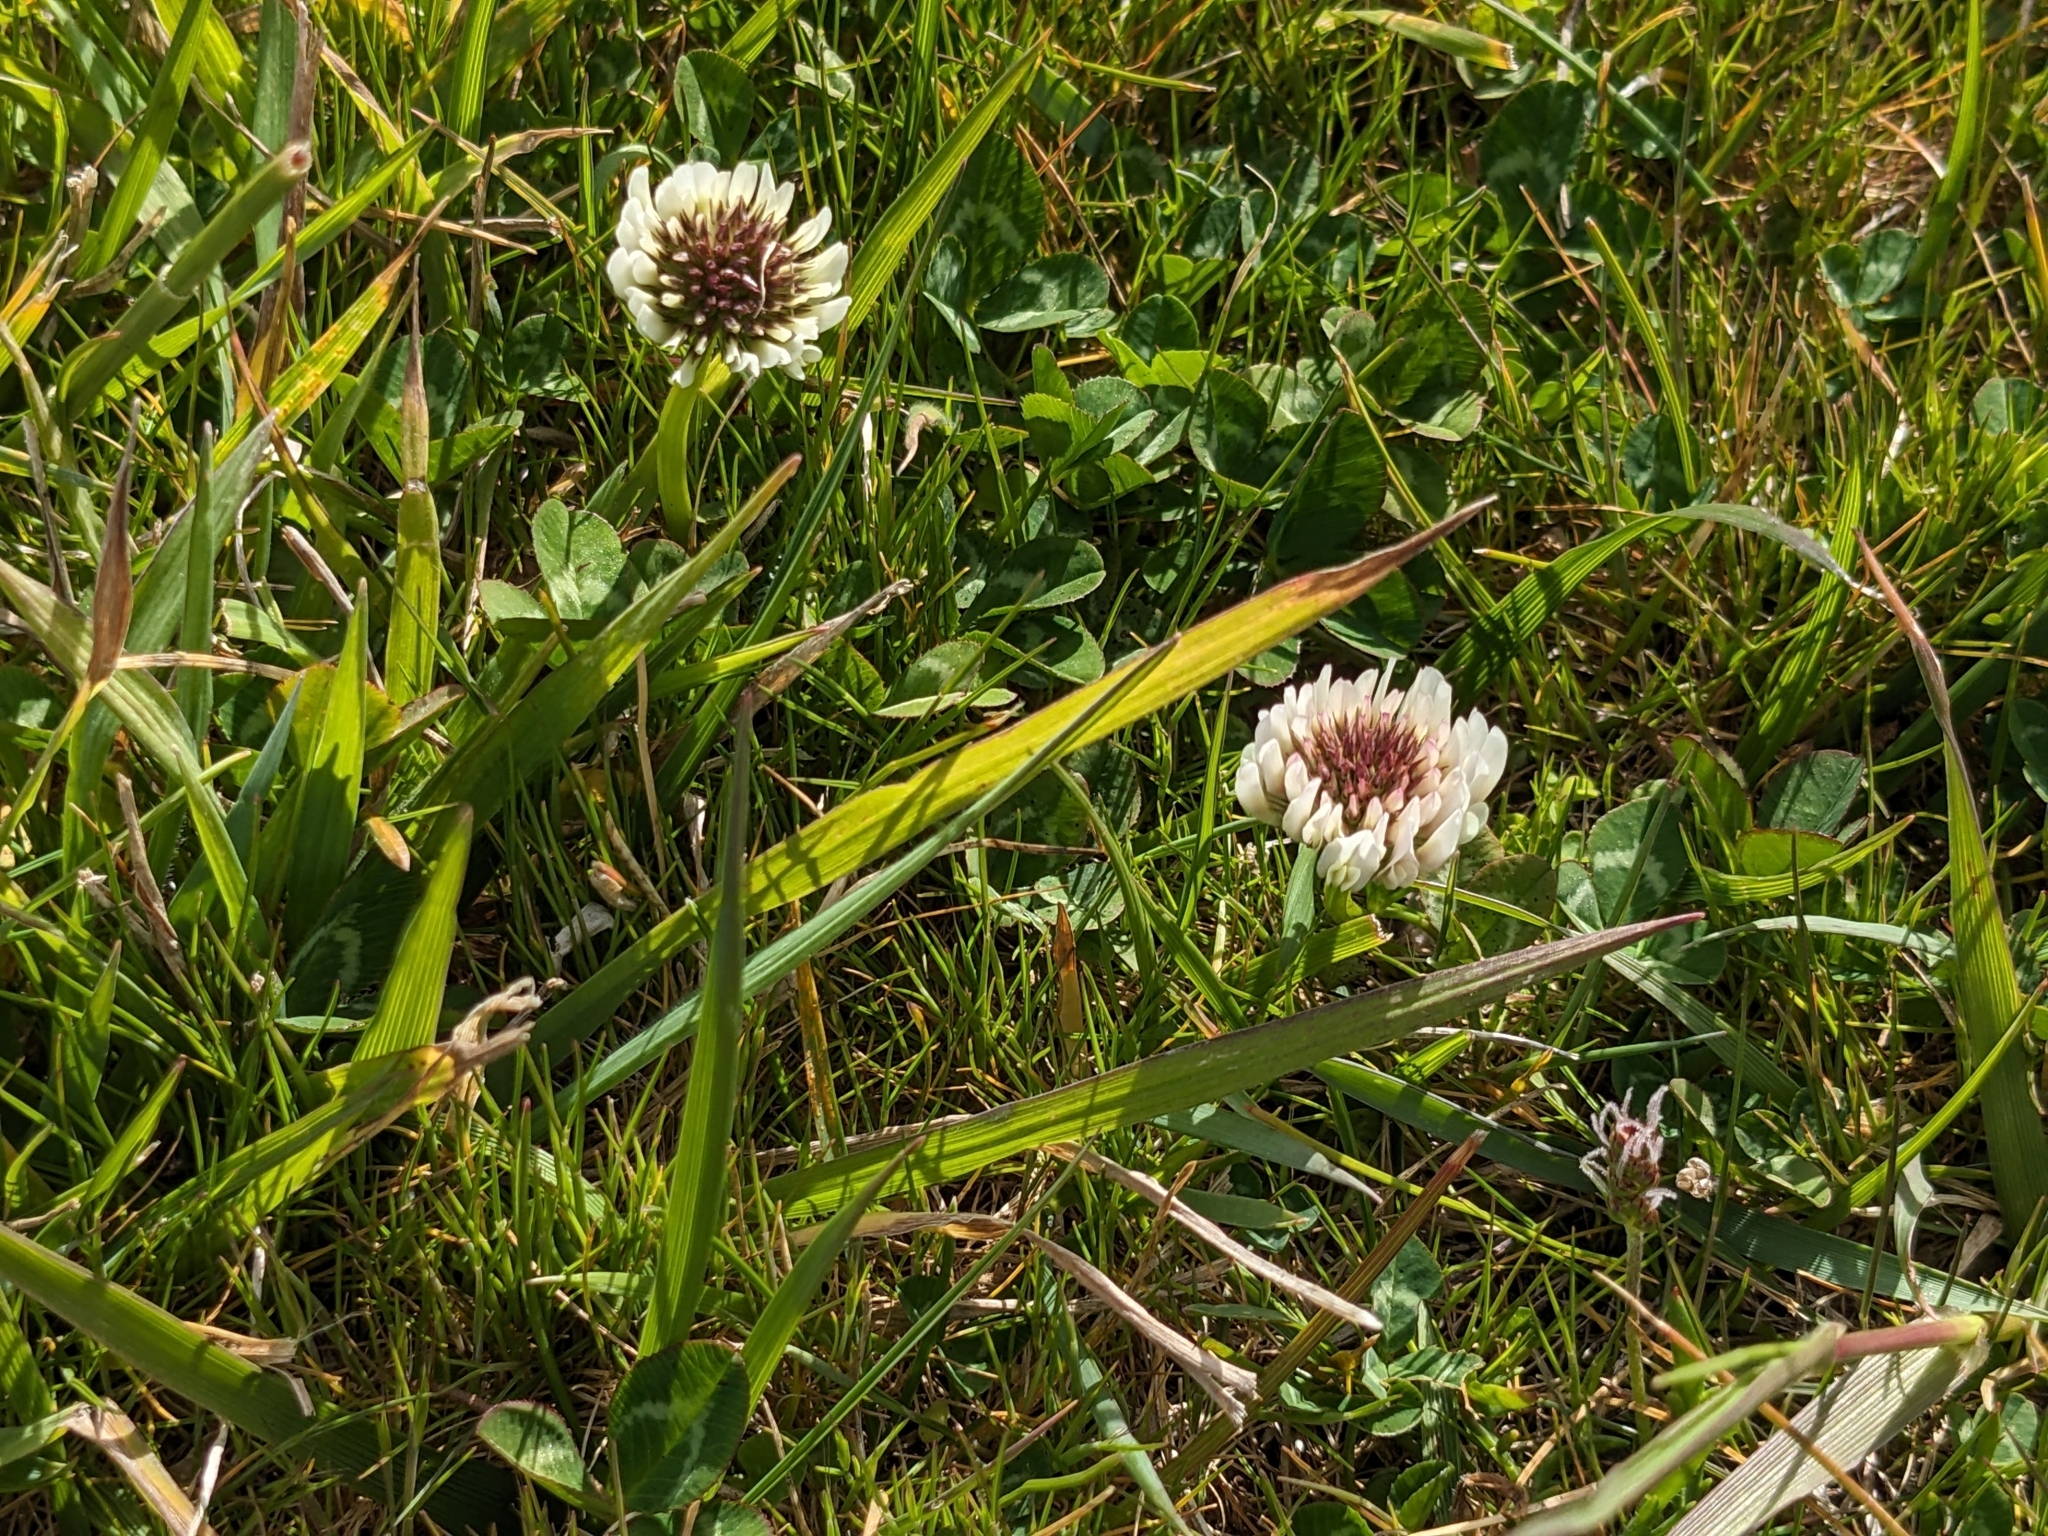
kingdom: Plantae
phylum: Tracheophyta
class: Magnoliopsida
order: Fabales
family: Fabaceae
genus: Trifolium
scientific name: Trifolium repens
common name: White clover
